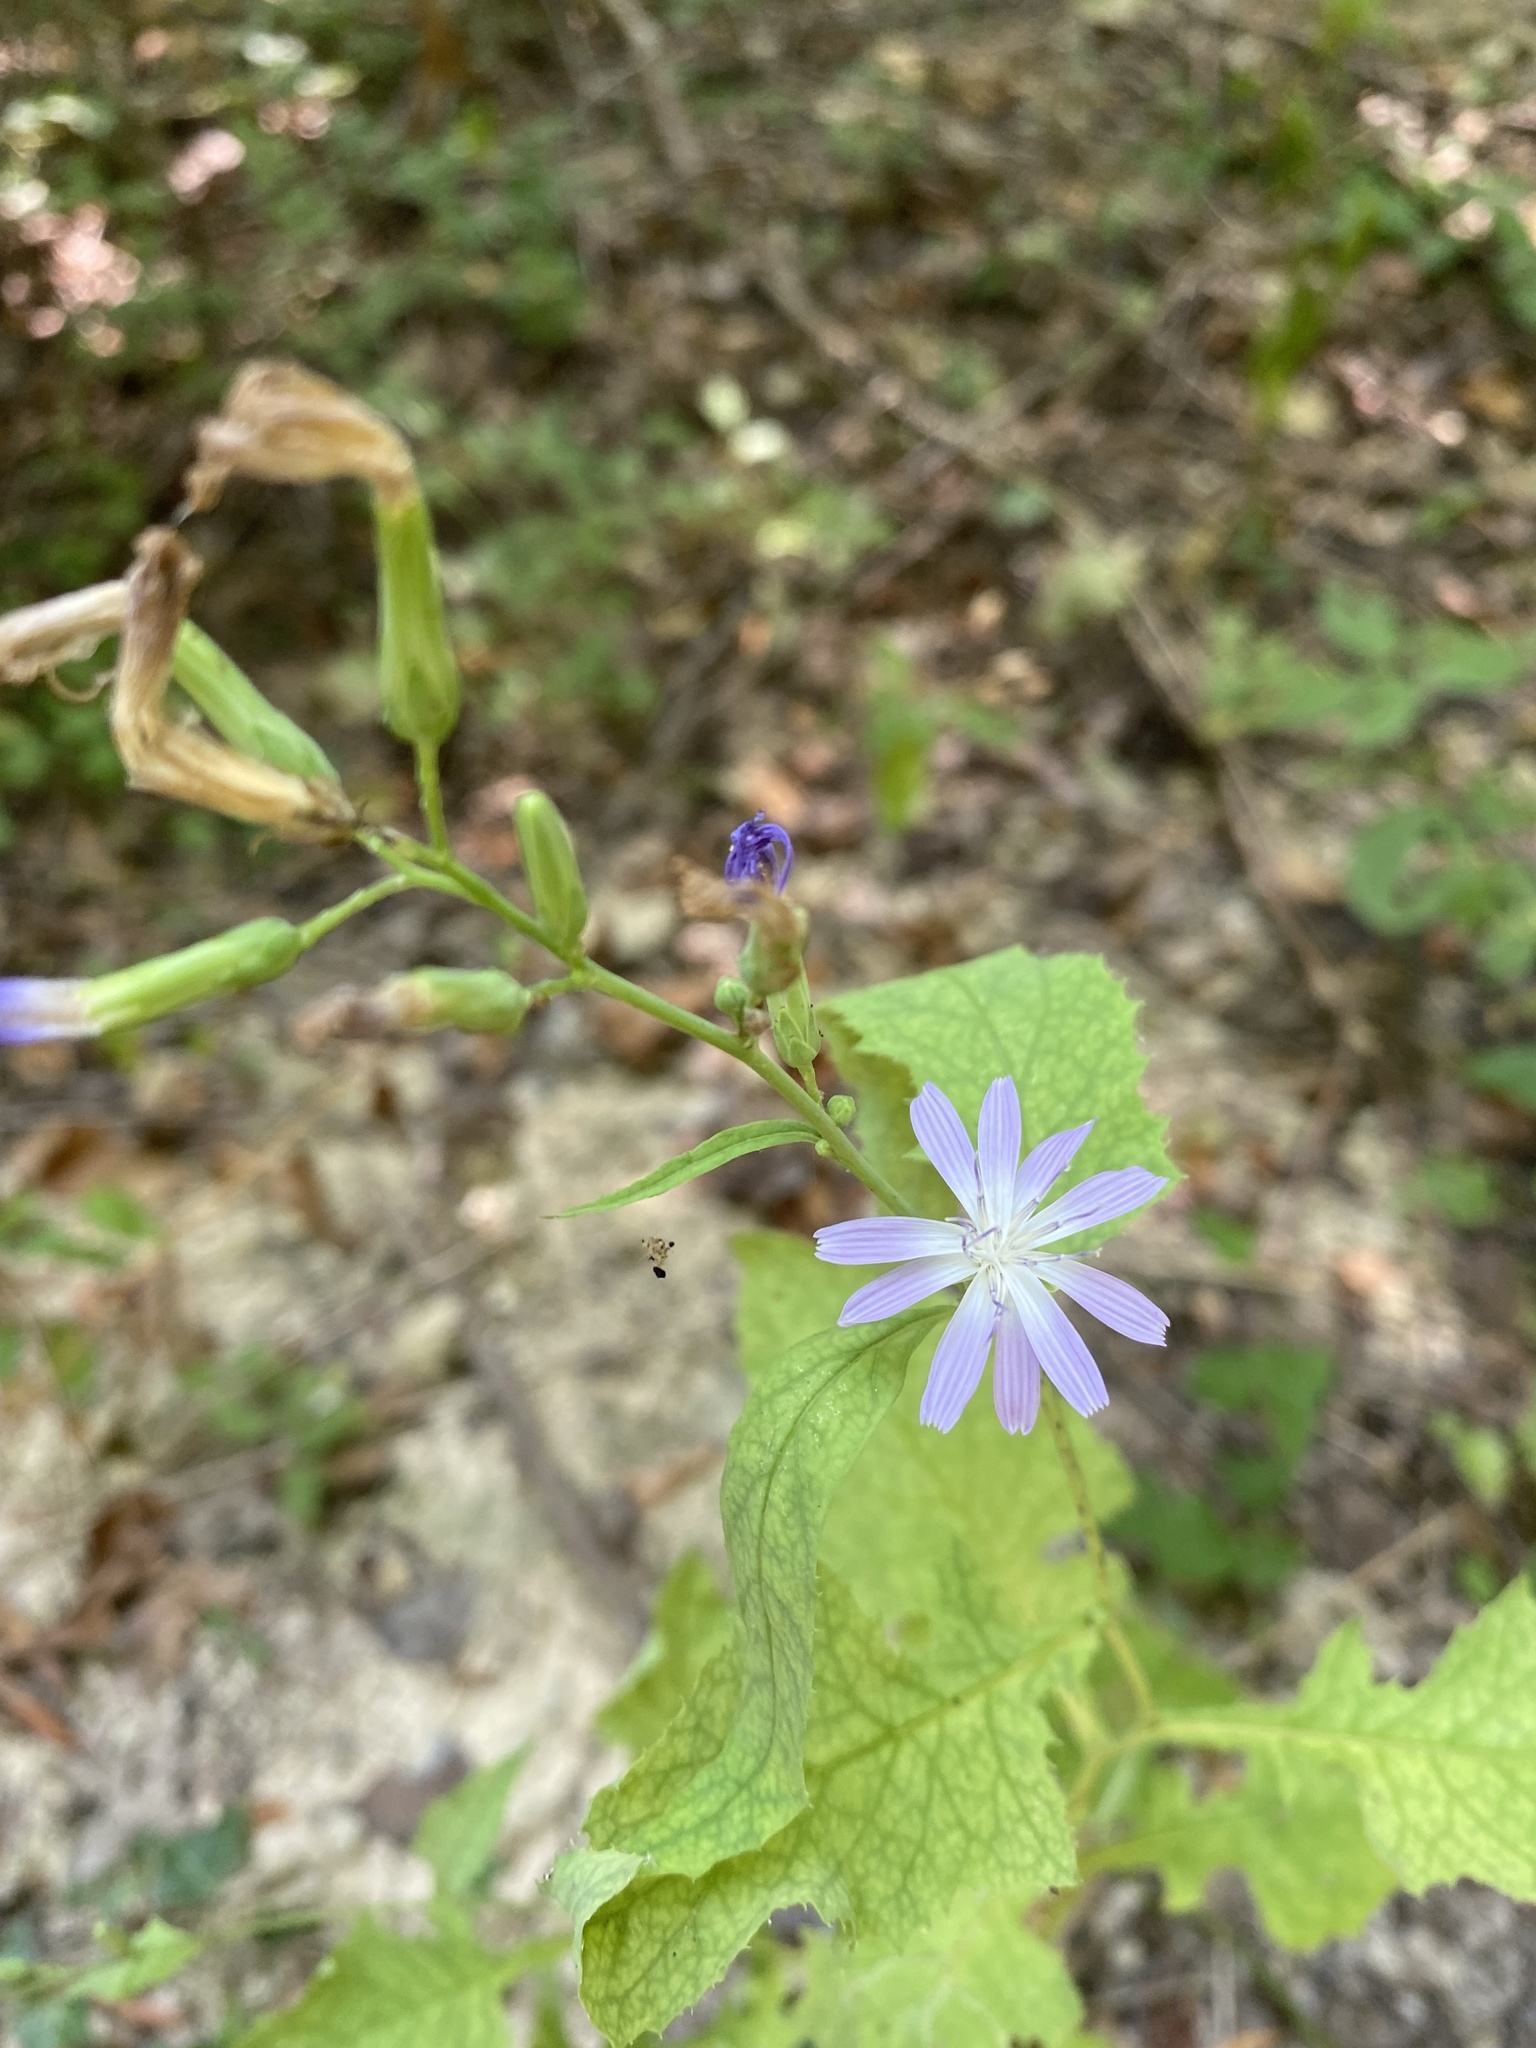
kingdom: Plantae
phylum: Tracheophyta
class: Magnoliopsida
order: Asterales
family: Asteraceae
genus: Cicerbita
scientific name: Cicerbita prenanthoides
